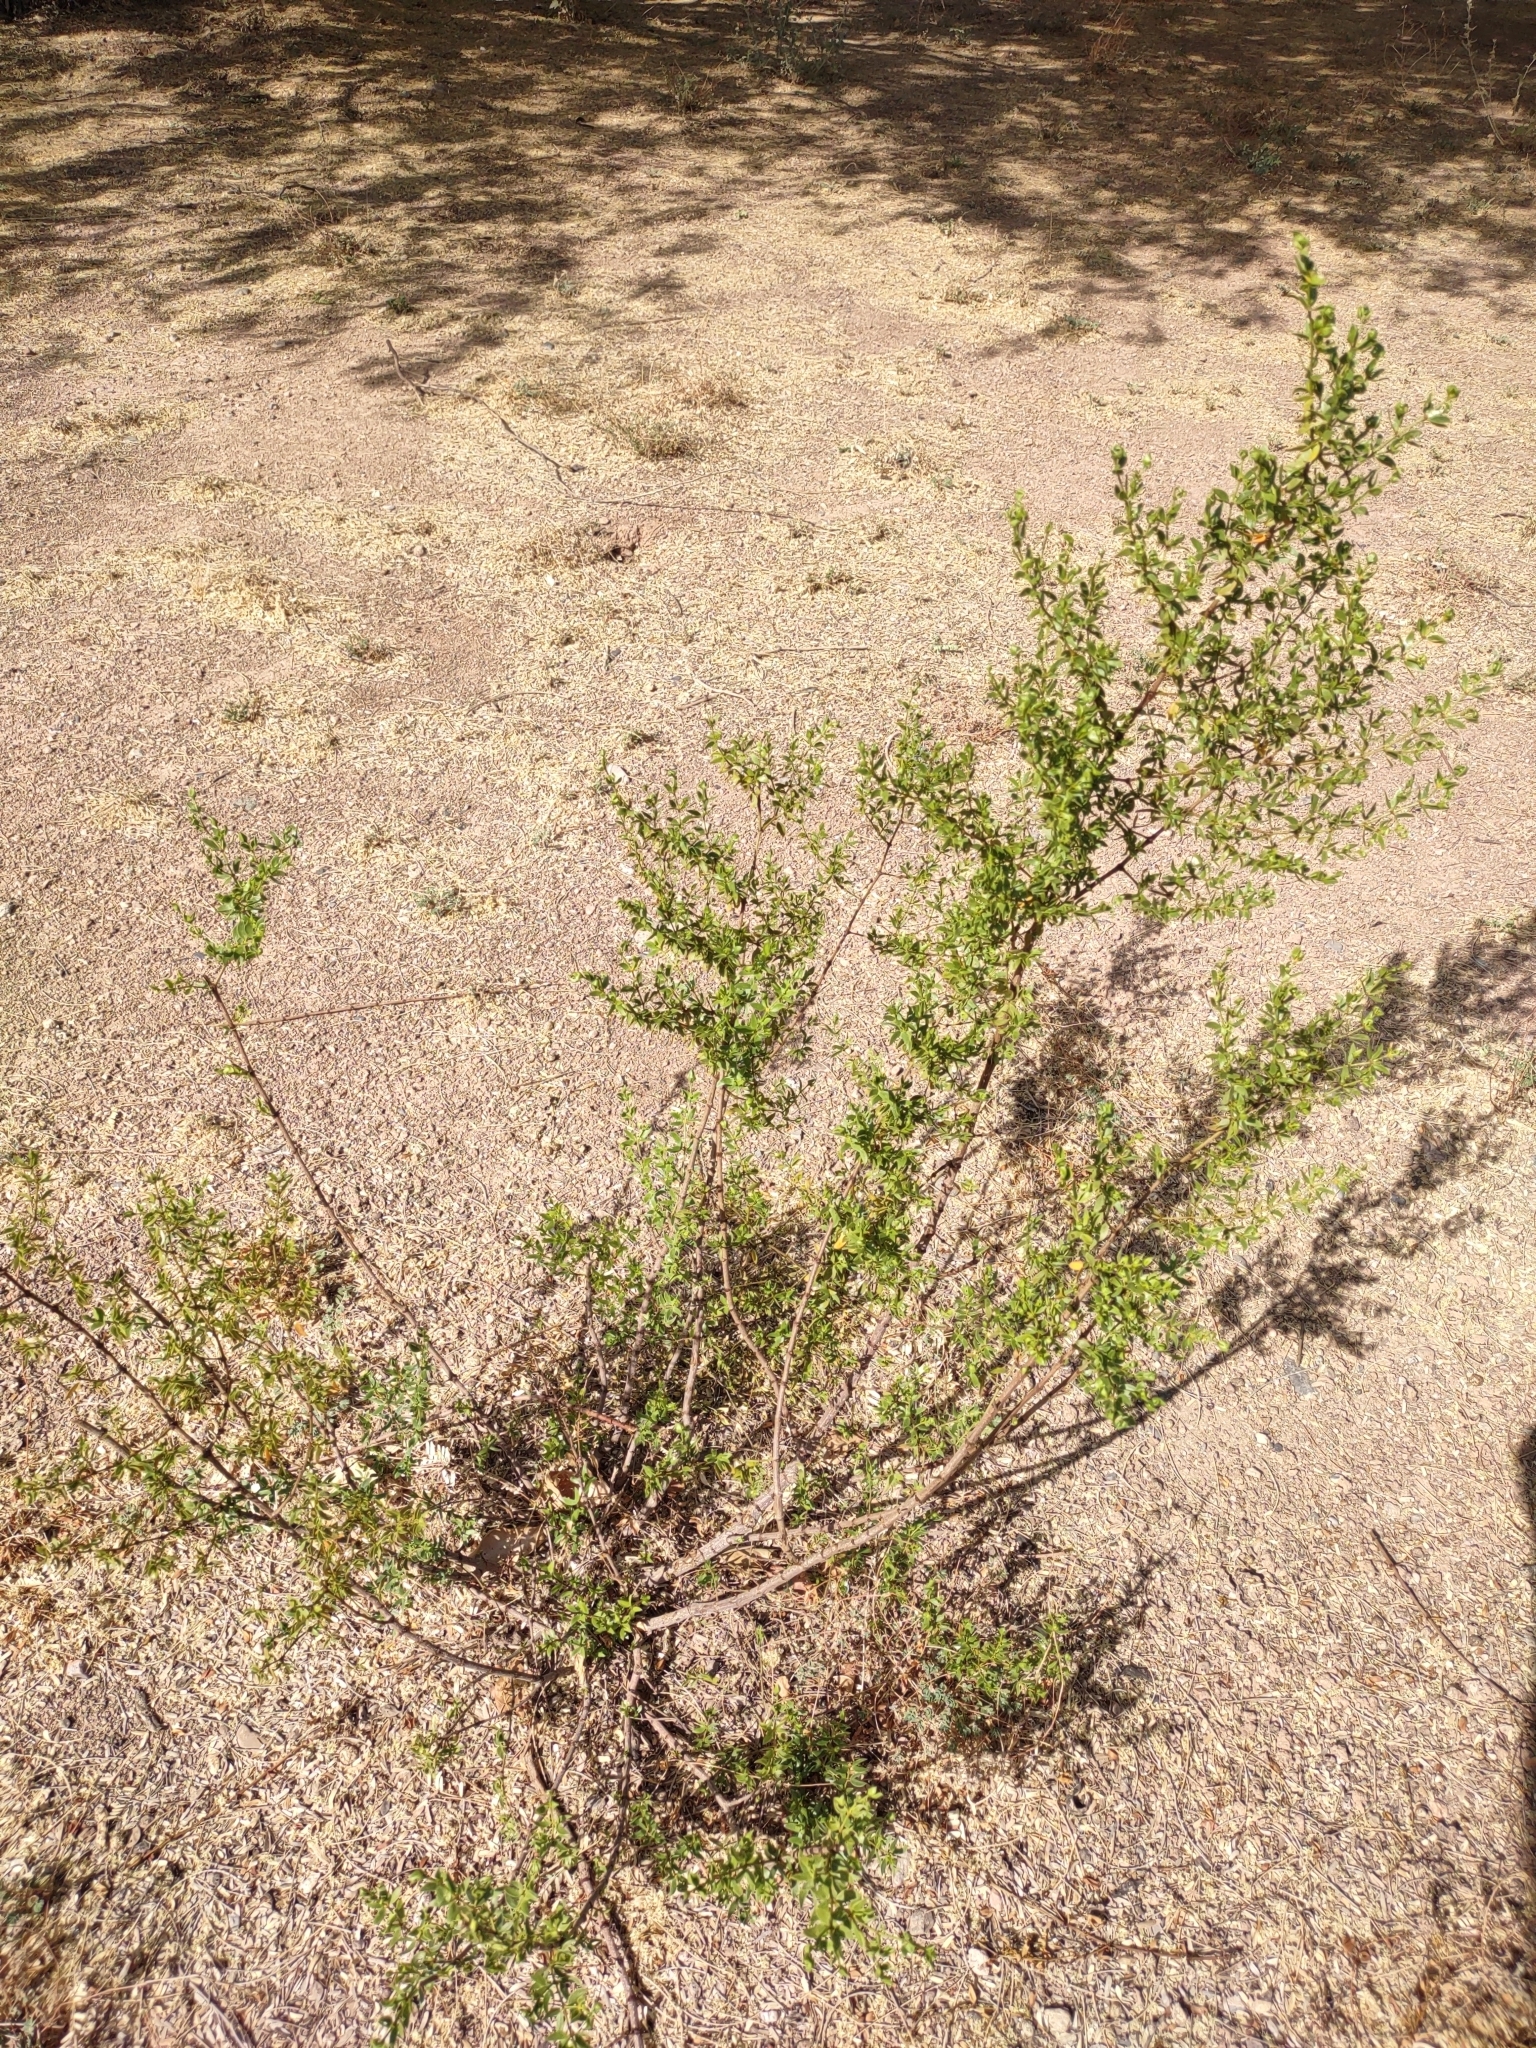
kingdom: Plantae
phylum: Tracheophyta
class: Magnoliopsida
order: Zygophyllales
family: Zygophyllaceae
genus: Larrea
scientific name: Larrea tridentata
